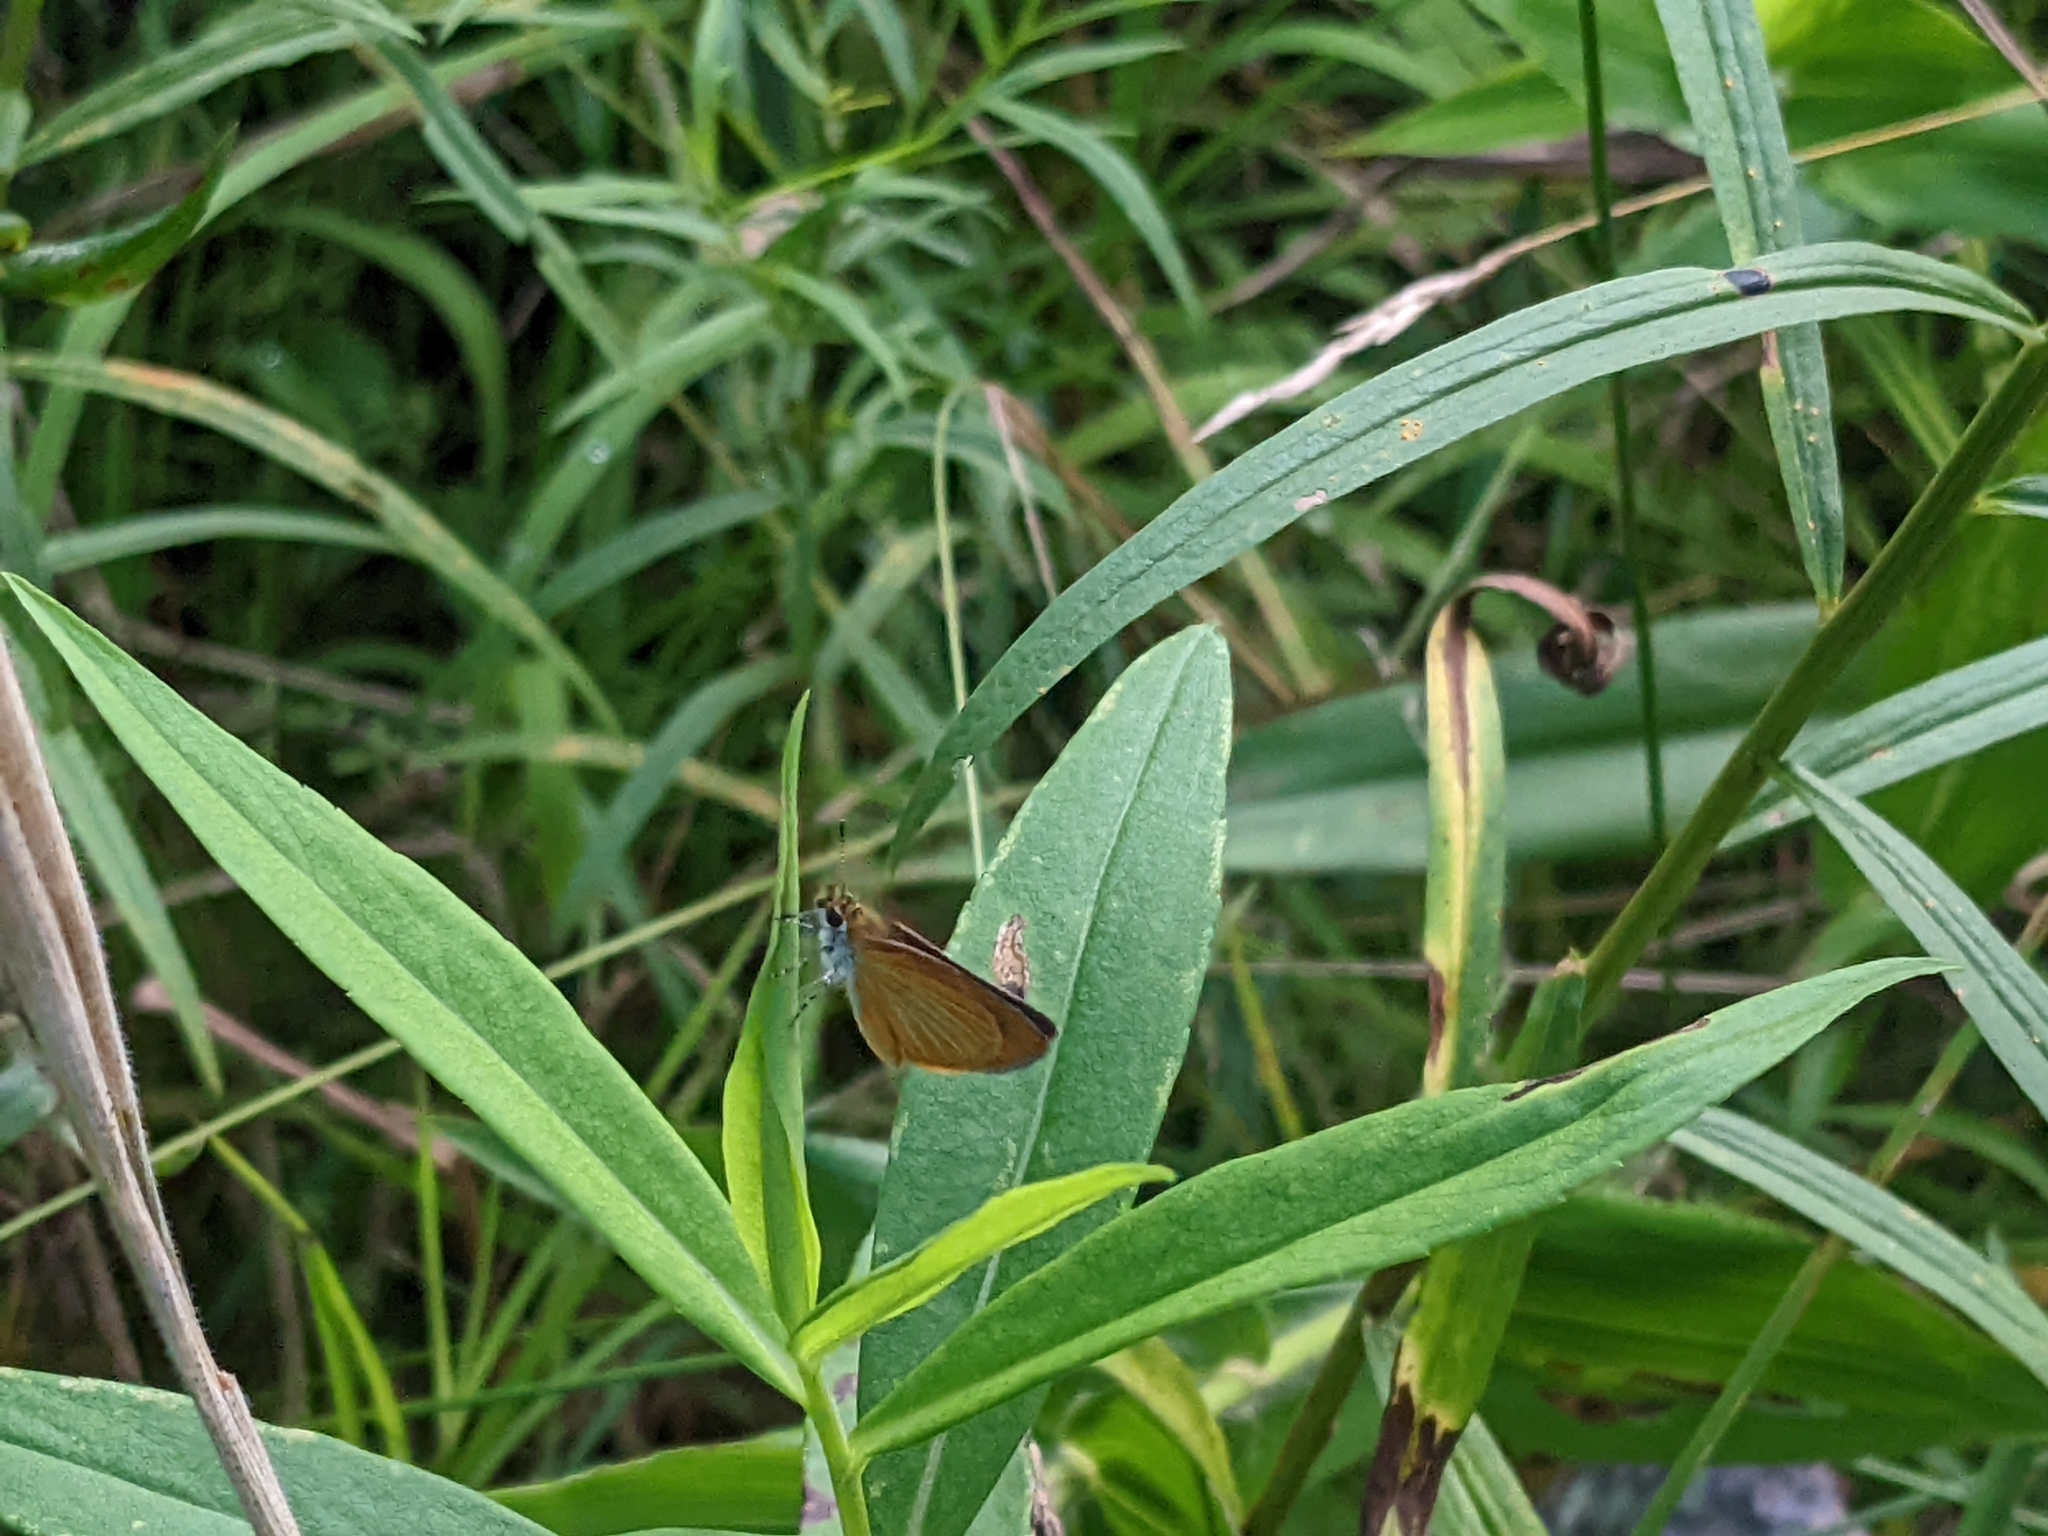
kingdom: Animalia
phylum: Arthropoda
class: Insecta
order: Lepidoptera
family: Hesperiidae
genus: Ancyloxypha
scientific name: Ancyloxypha numitor
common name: Least skipper
